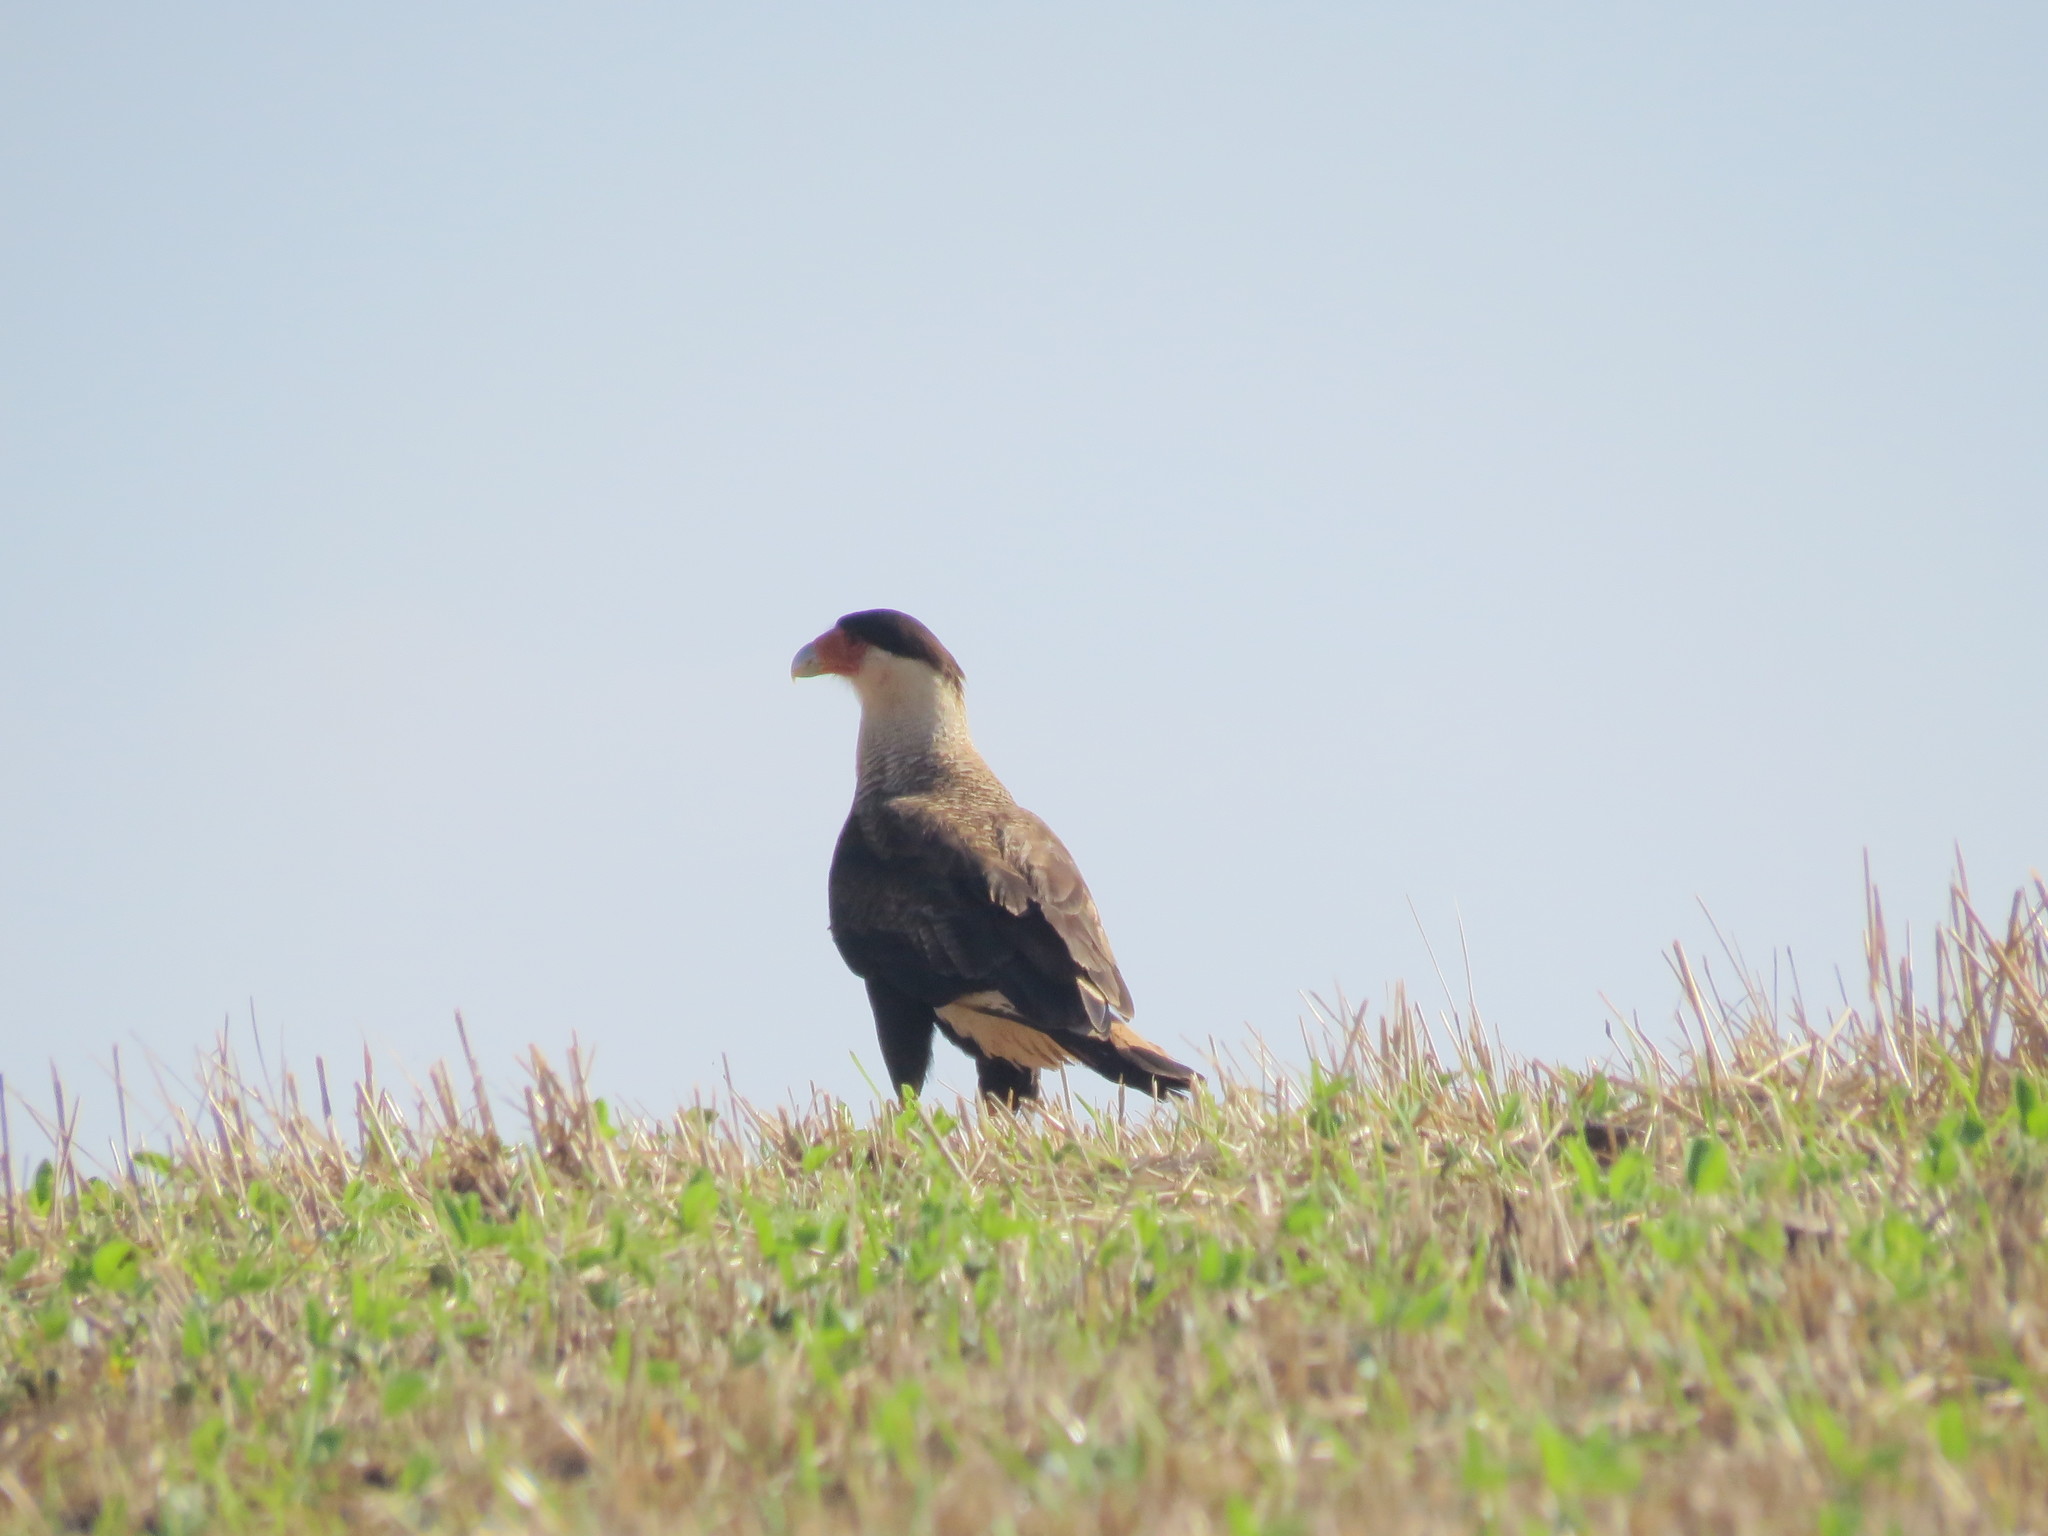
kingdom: Animalia
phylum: Chordata
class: Aves
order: Falconiformes
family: Falconidae
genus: Caracara
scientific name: Caracara plancus
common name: Southern caracara
